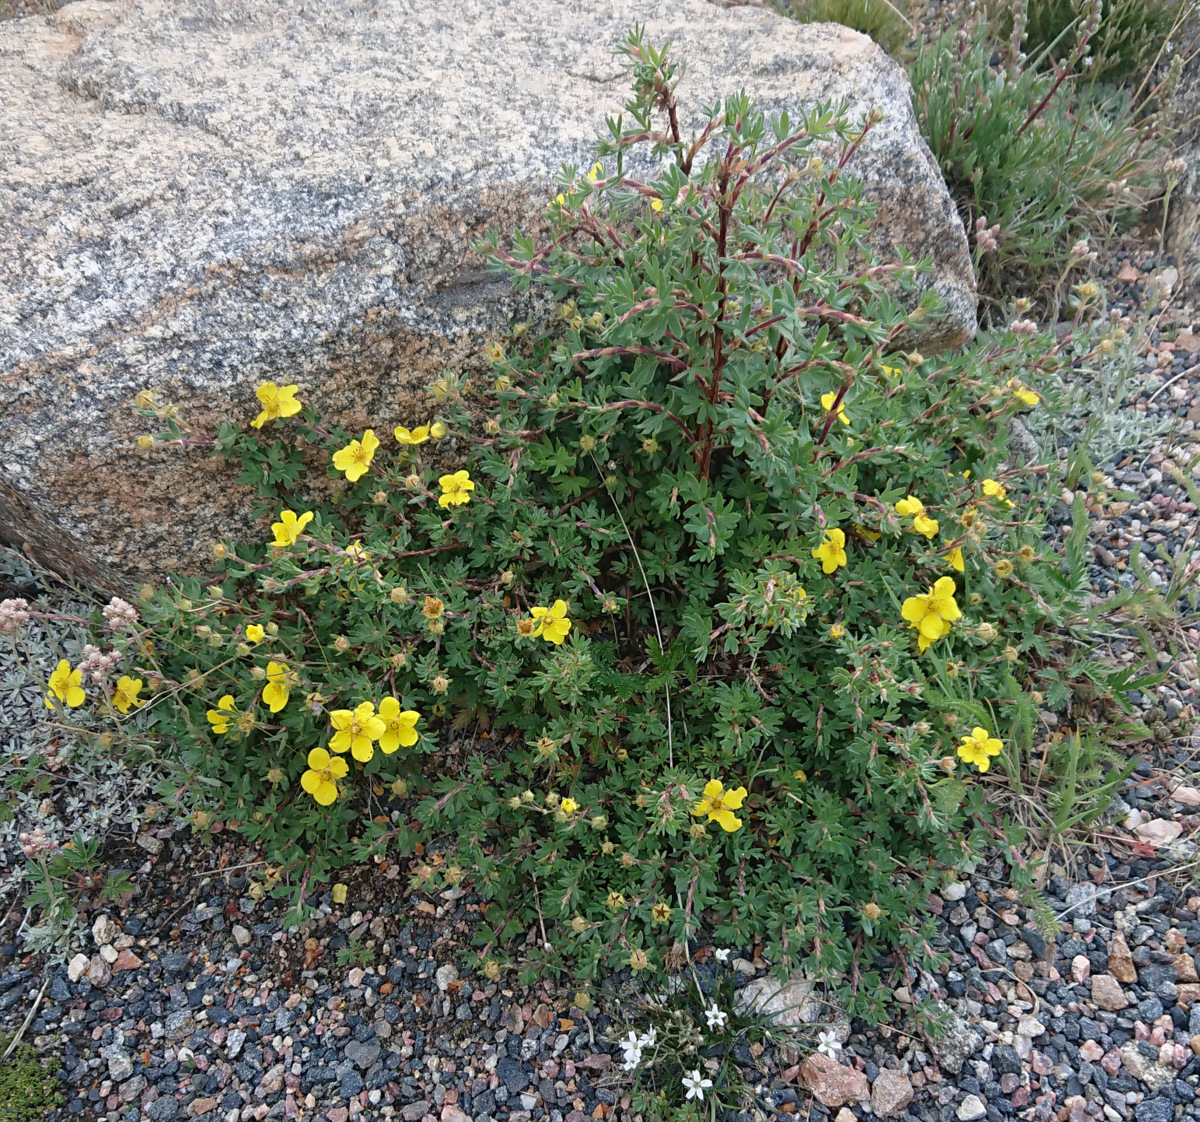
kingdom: Plantae
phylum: Tracheophyta
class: Magnoliopsida
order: Rosales
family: Rosaceae
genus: Dasiphora
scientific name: Dasiphora fruticosa
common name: Shrubby cinquefoil
